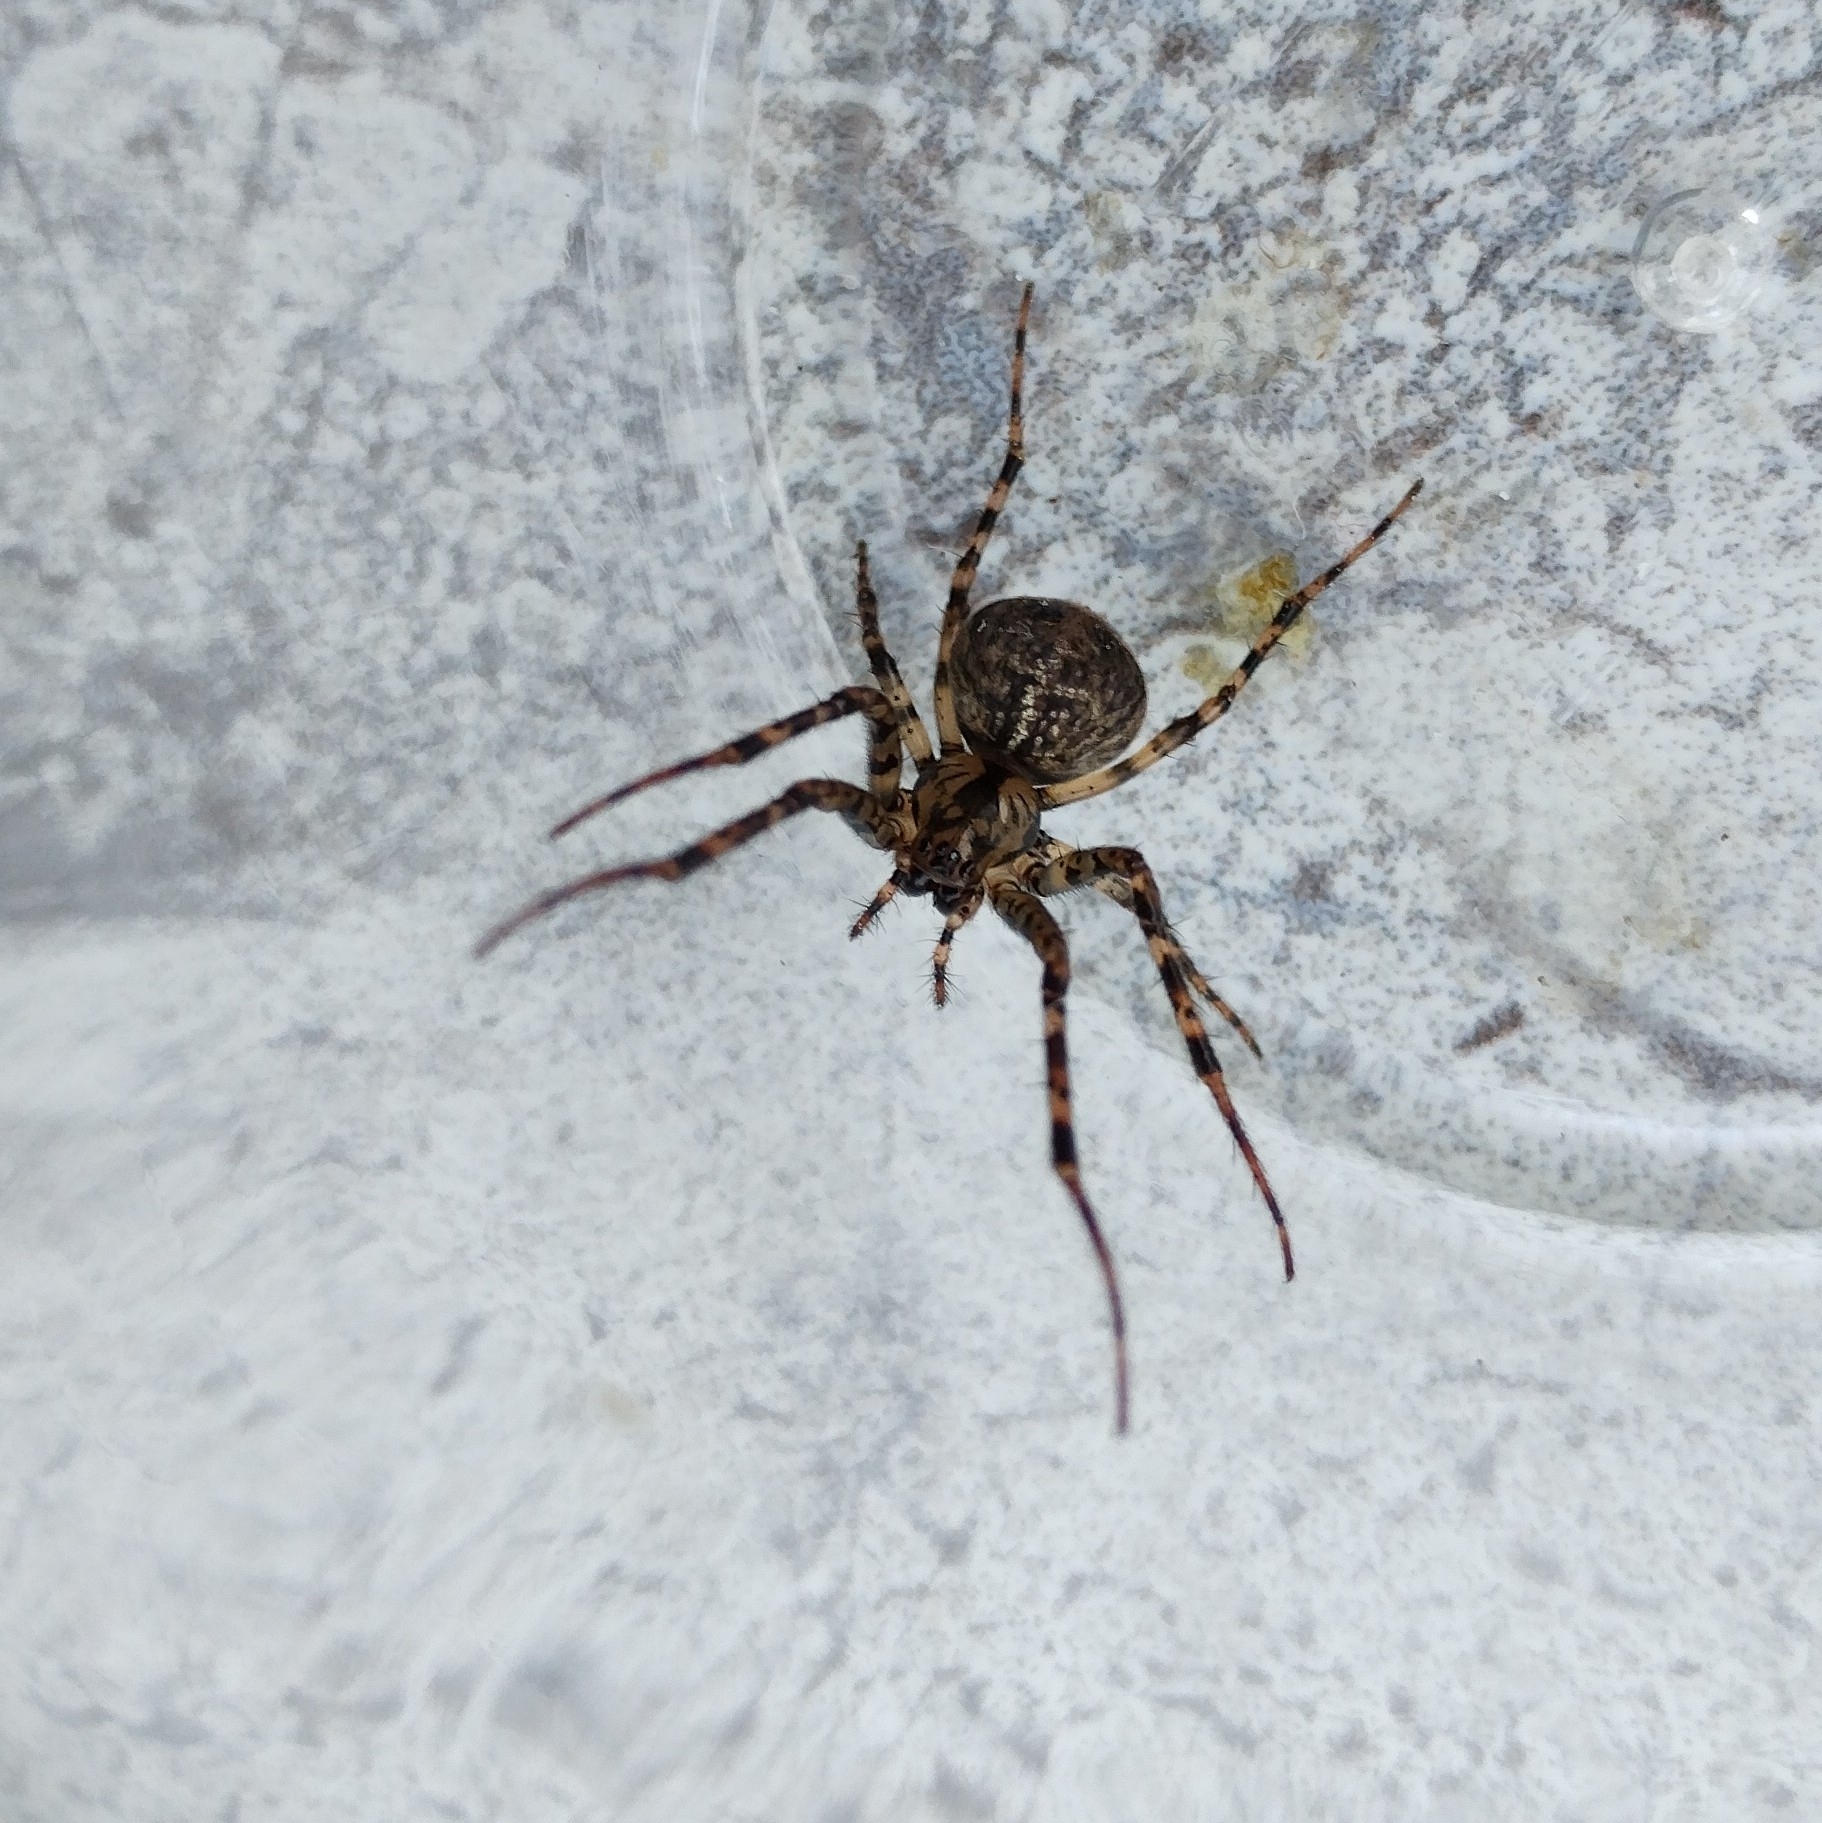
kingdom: Animalia
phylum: Arthropoda
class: Arachnida
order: Araneae
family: Tetragnathidae
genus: Metellina
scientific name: Metellina merianae
